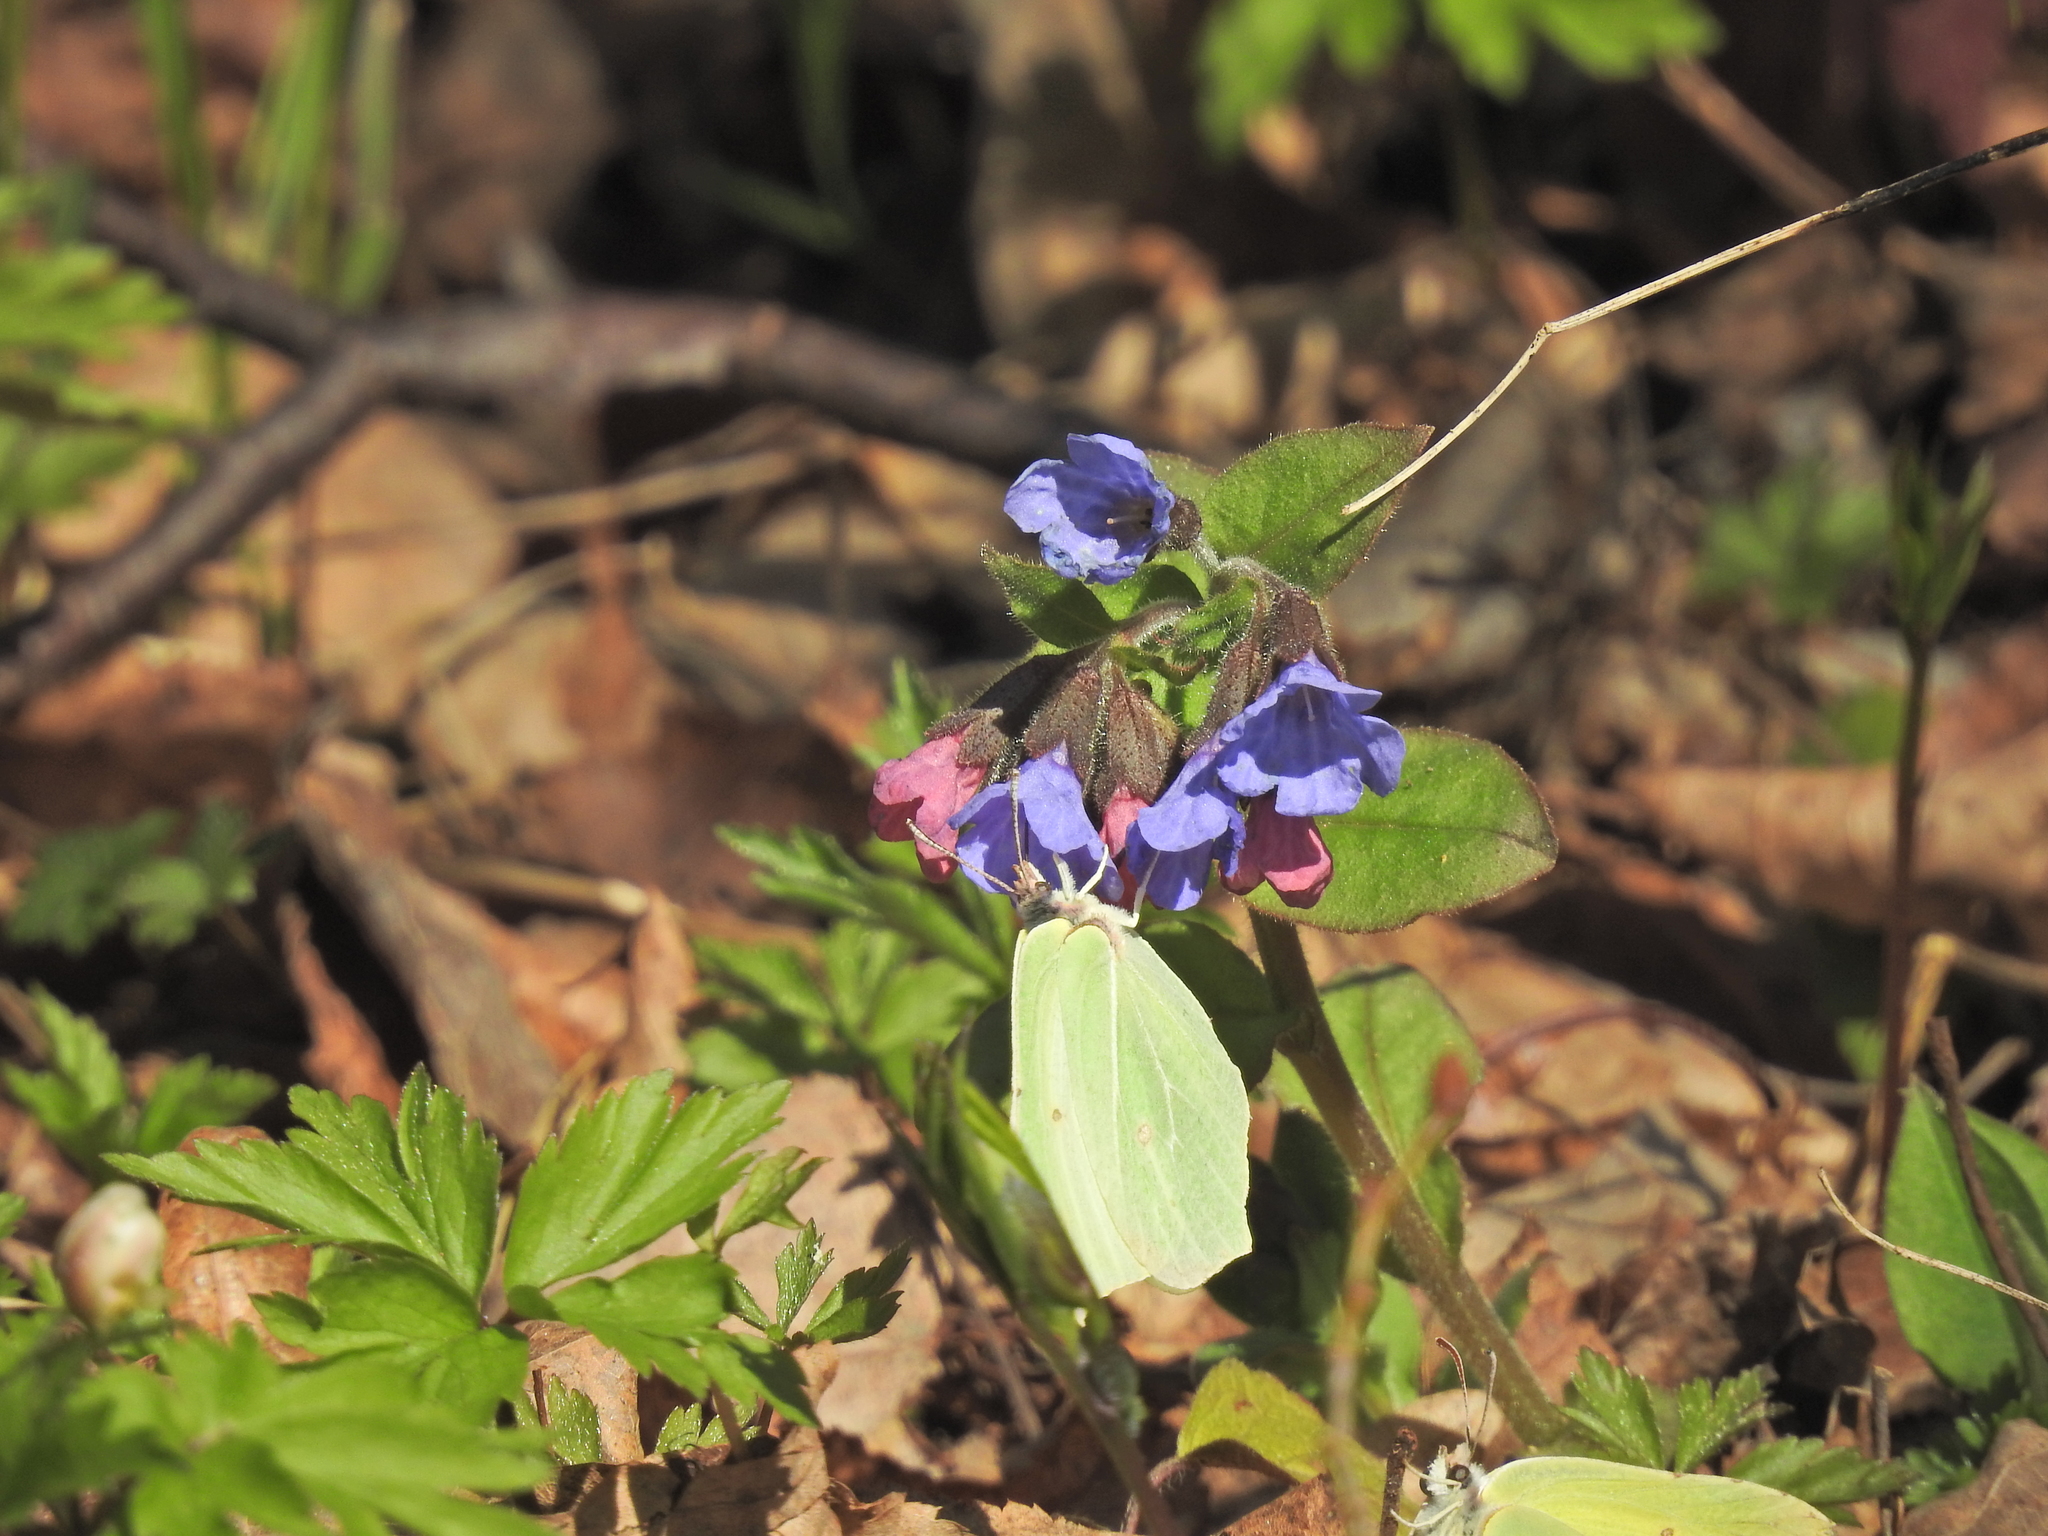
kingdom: Animalia
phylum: Arthropoda
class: Insecta
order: Lepidoptera
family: Pieridae
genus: Gonepteryx
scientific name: Gonepteryx rhamni
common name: Brimstone
